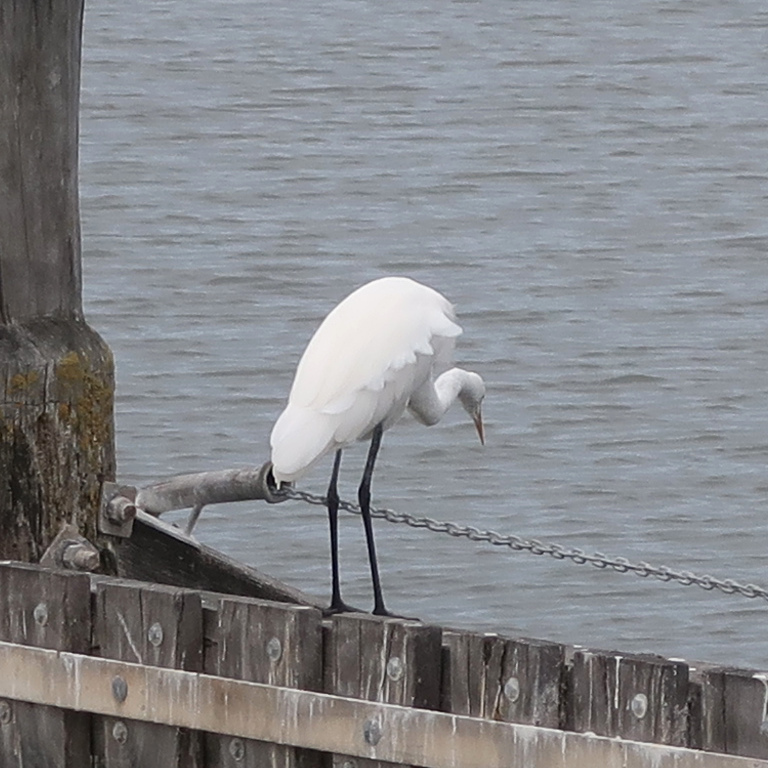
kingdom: Animalia
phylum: Chordata
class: Aves
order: Pelecaniformes
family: Ardeidae
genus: Ardea
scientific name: Ardea alba
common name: Great egret
